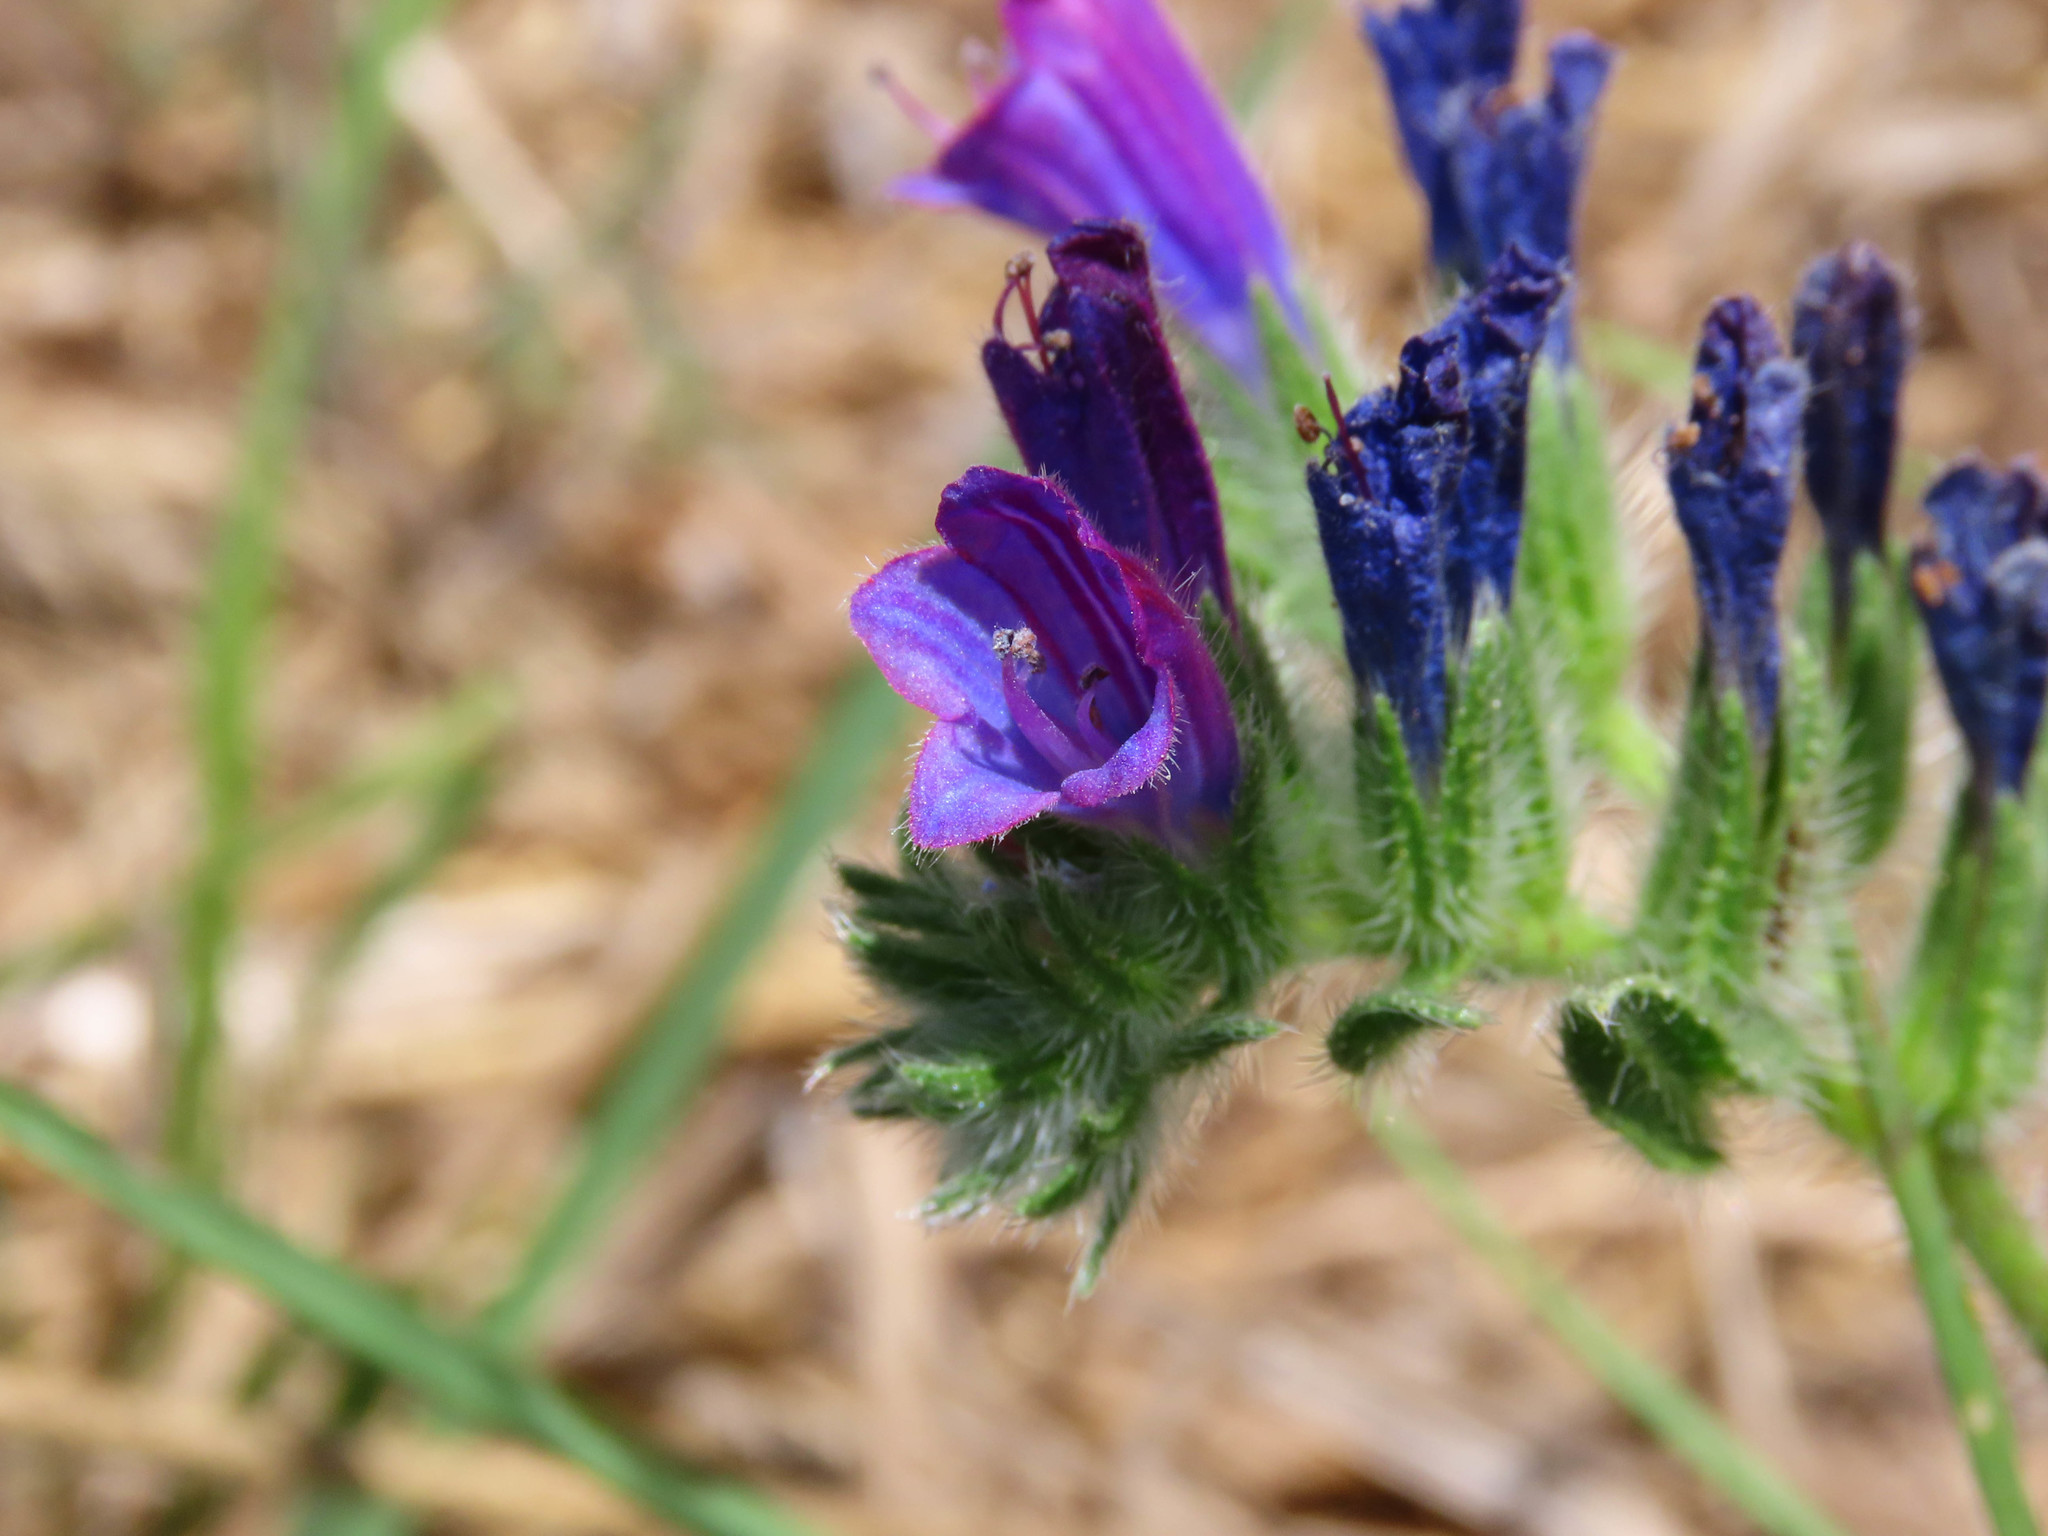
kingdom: Plantae
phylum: Tracheophyta
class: Magnoliopsida
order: Boraginales
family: Boraginaceae
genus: Echium
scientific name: Echium sabulicola
